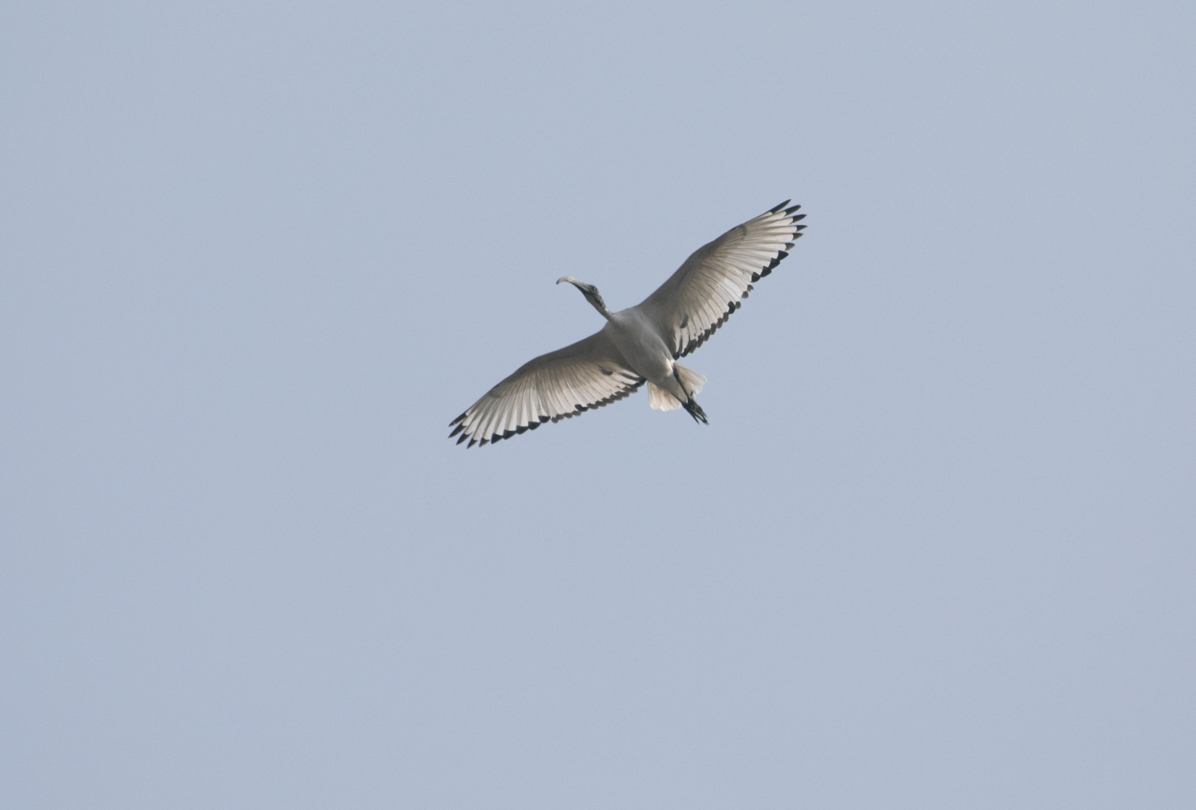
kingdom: Animalia
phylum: Chordata
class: Aves
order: Pelecaniformes
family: Threskiornithidae
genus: Threskiornis
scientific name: Threskiornis aethiopicus
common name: Sacred ibis
